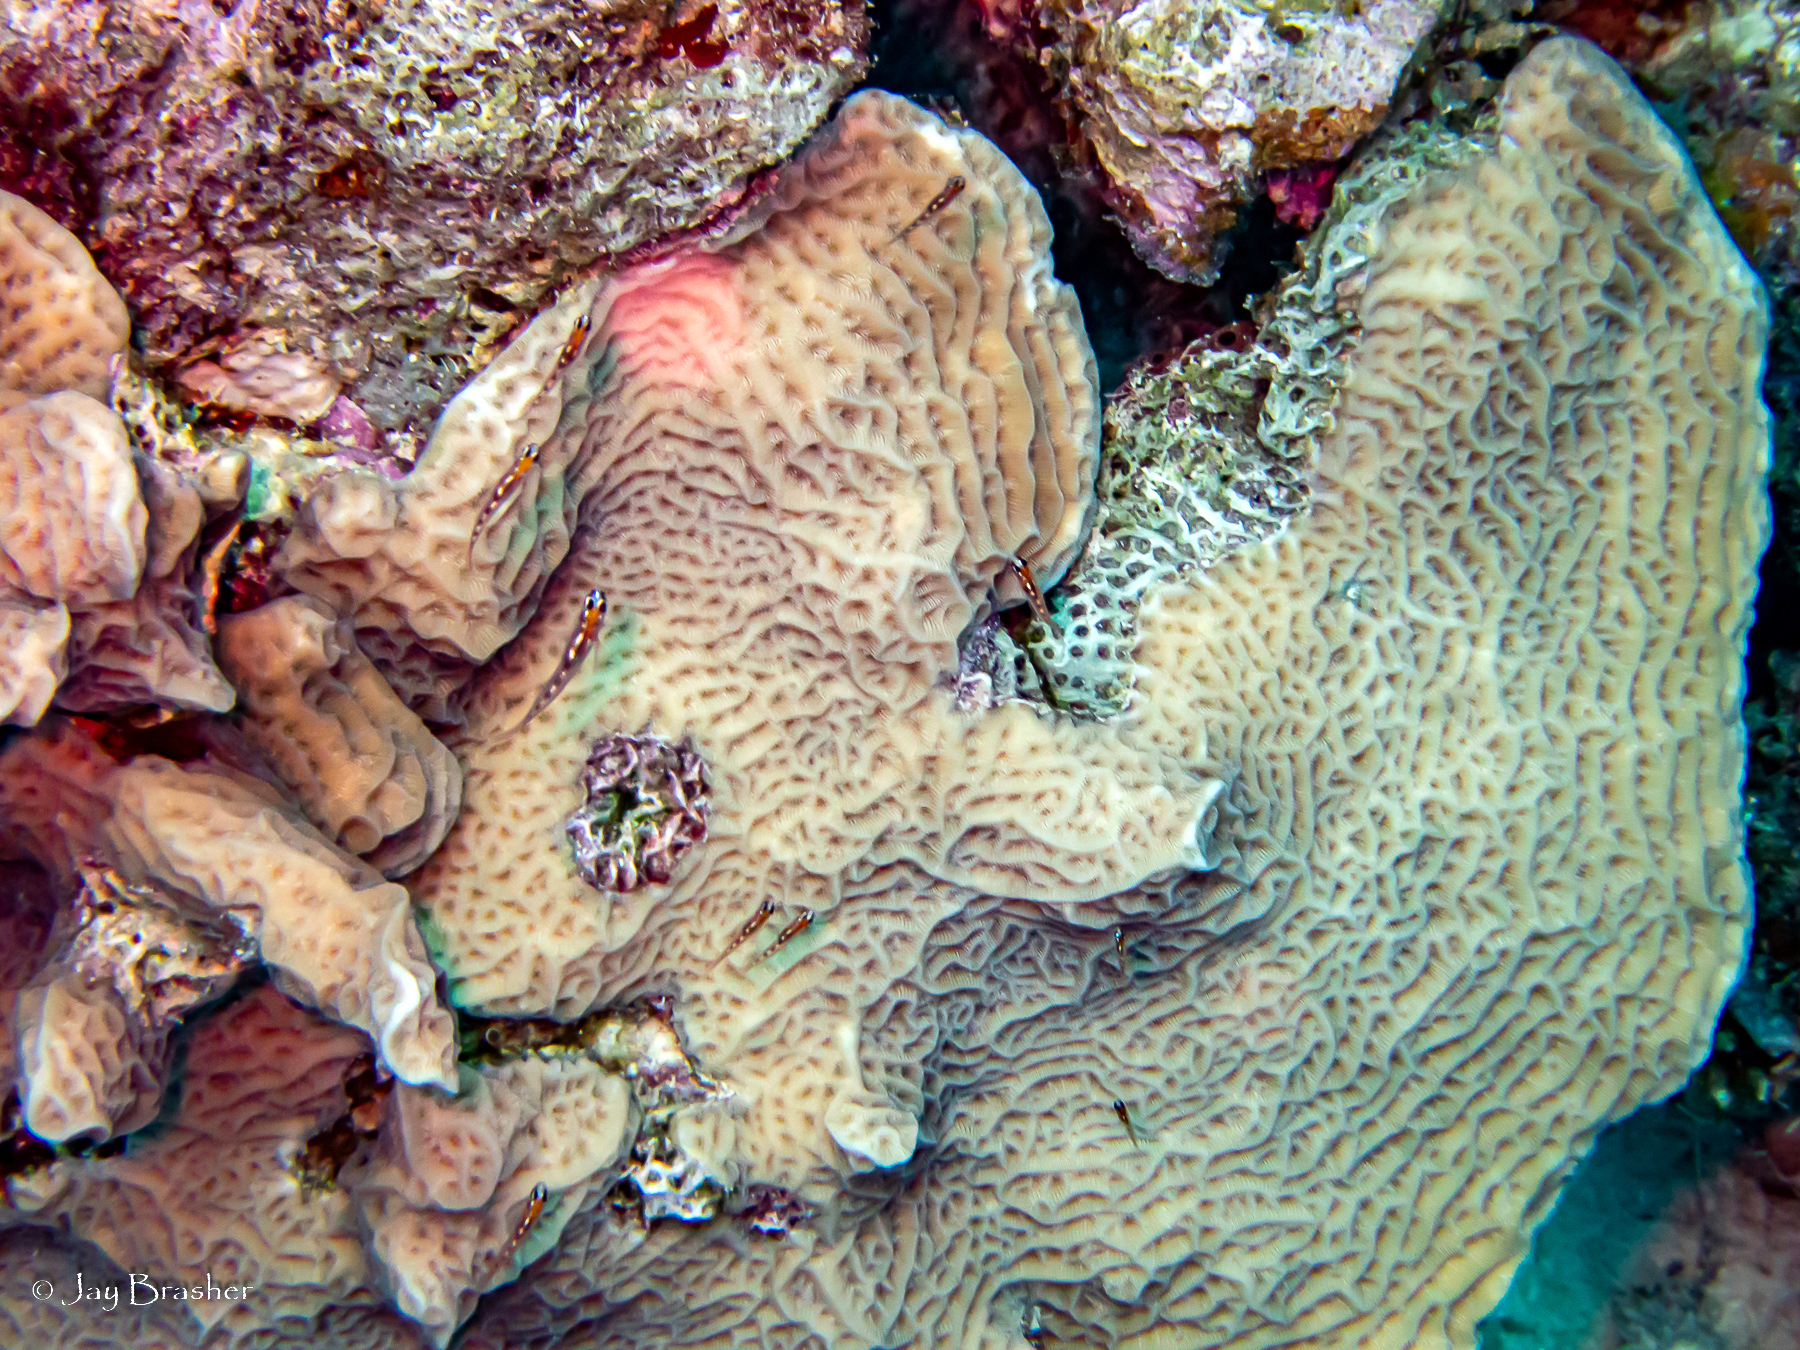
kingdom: Animalia
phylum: Cnidaria
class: Anthozoa
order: Scleractinia
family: Agariciidae
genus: Agaricia
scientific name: Agaricia agaricites
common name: Lettuce coral
